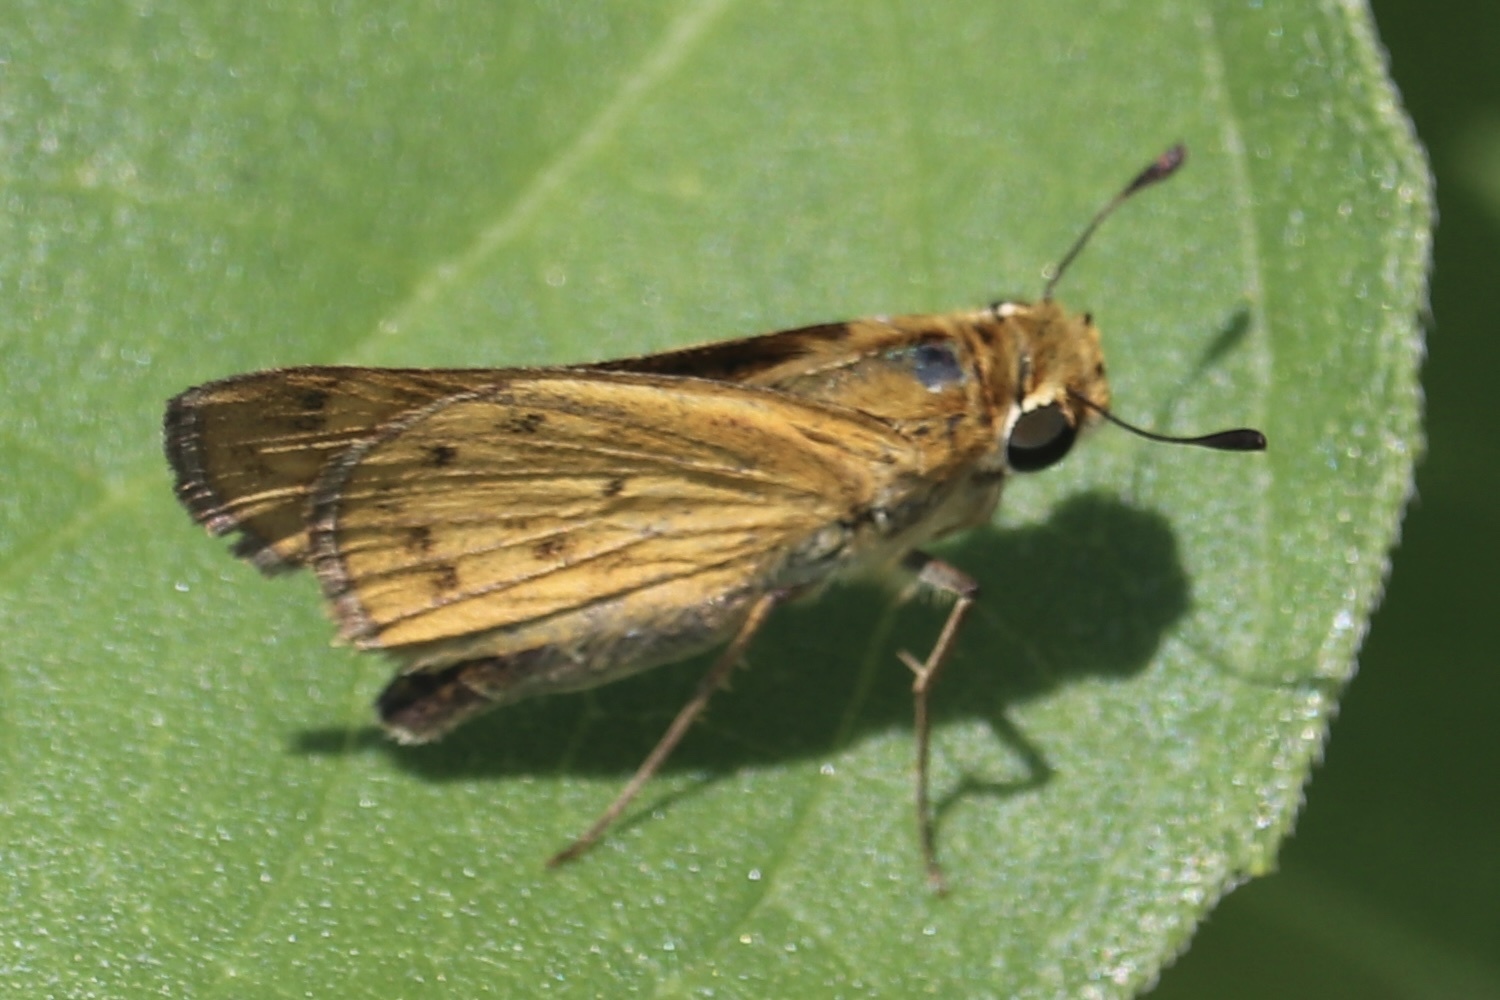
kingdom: Animalia
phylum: Arthropoda
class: Insecta
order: Lepidoptera
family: Hesperiidae
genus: Hylephila
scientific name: Hylephila phyleus
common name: Fiery skipper
